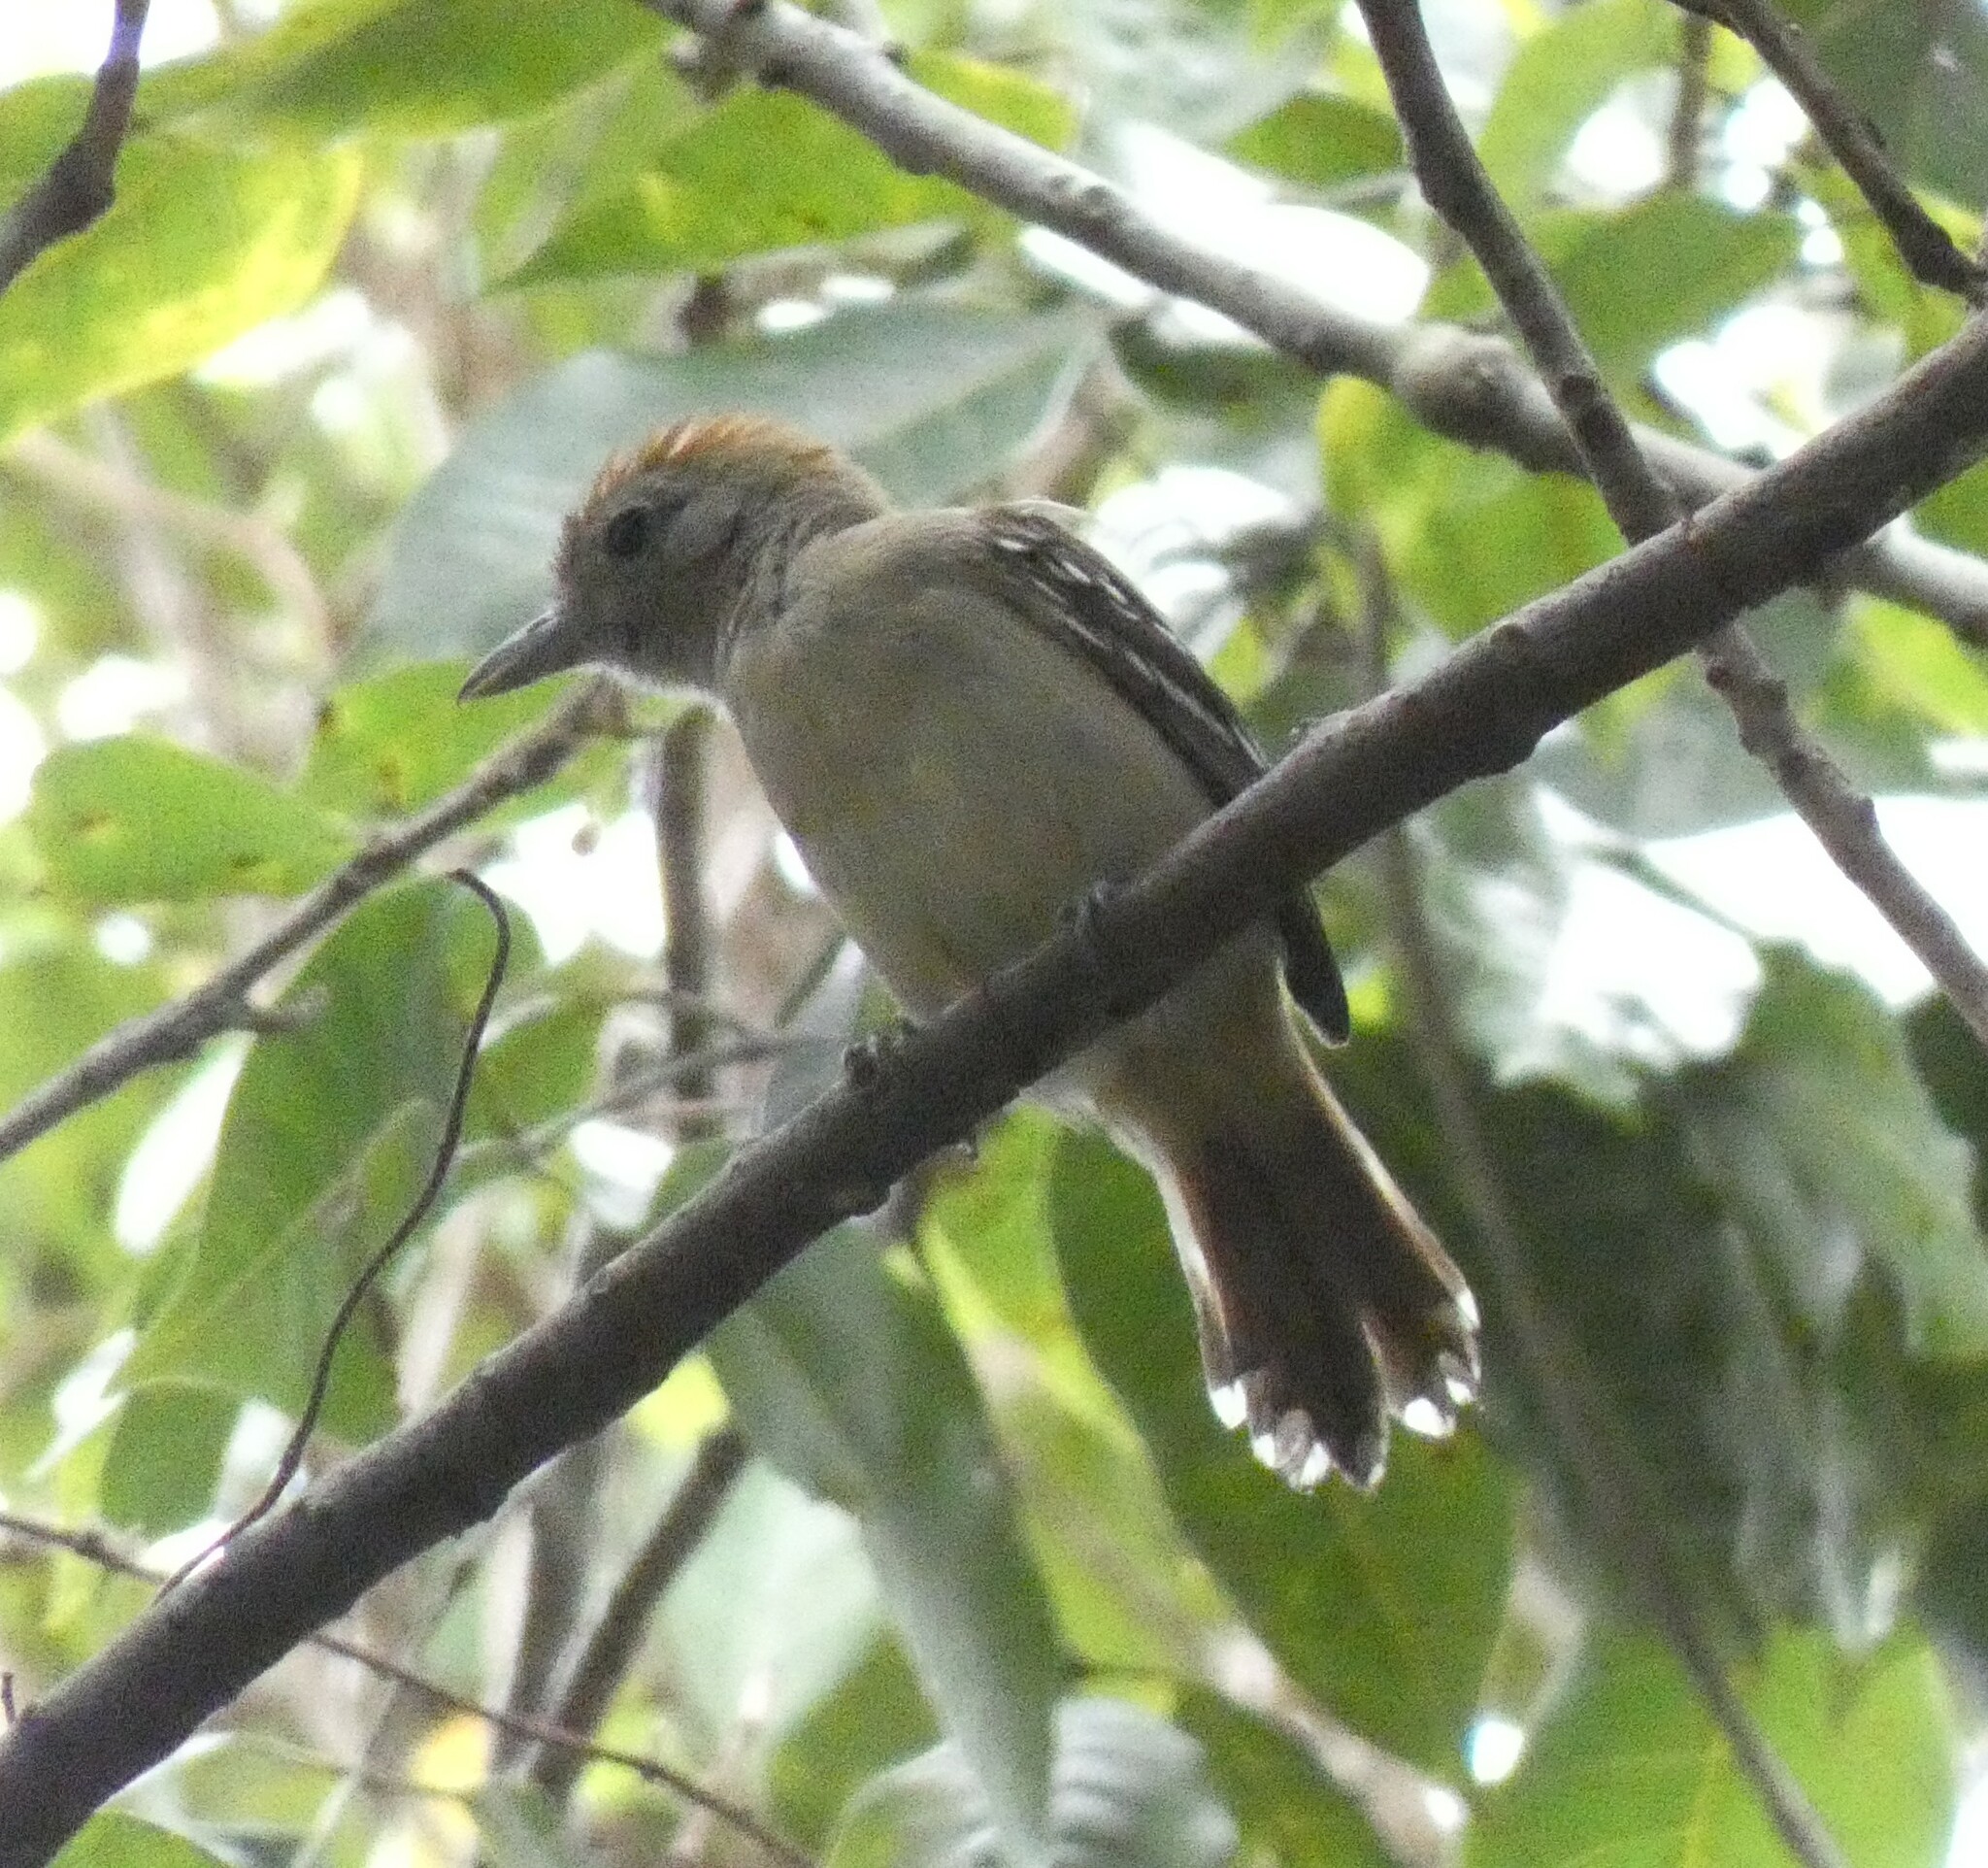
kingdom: Animalia
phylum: Chordata
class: Aves
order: Passeriformes
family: Thamnophilidae
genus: Thamnophilus
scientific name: Thamnophilus ambiguus
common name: Sooretama slaty antshrike
